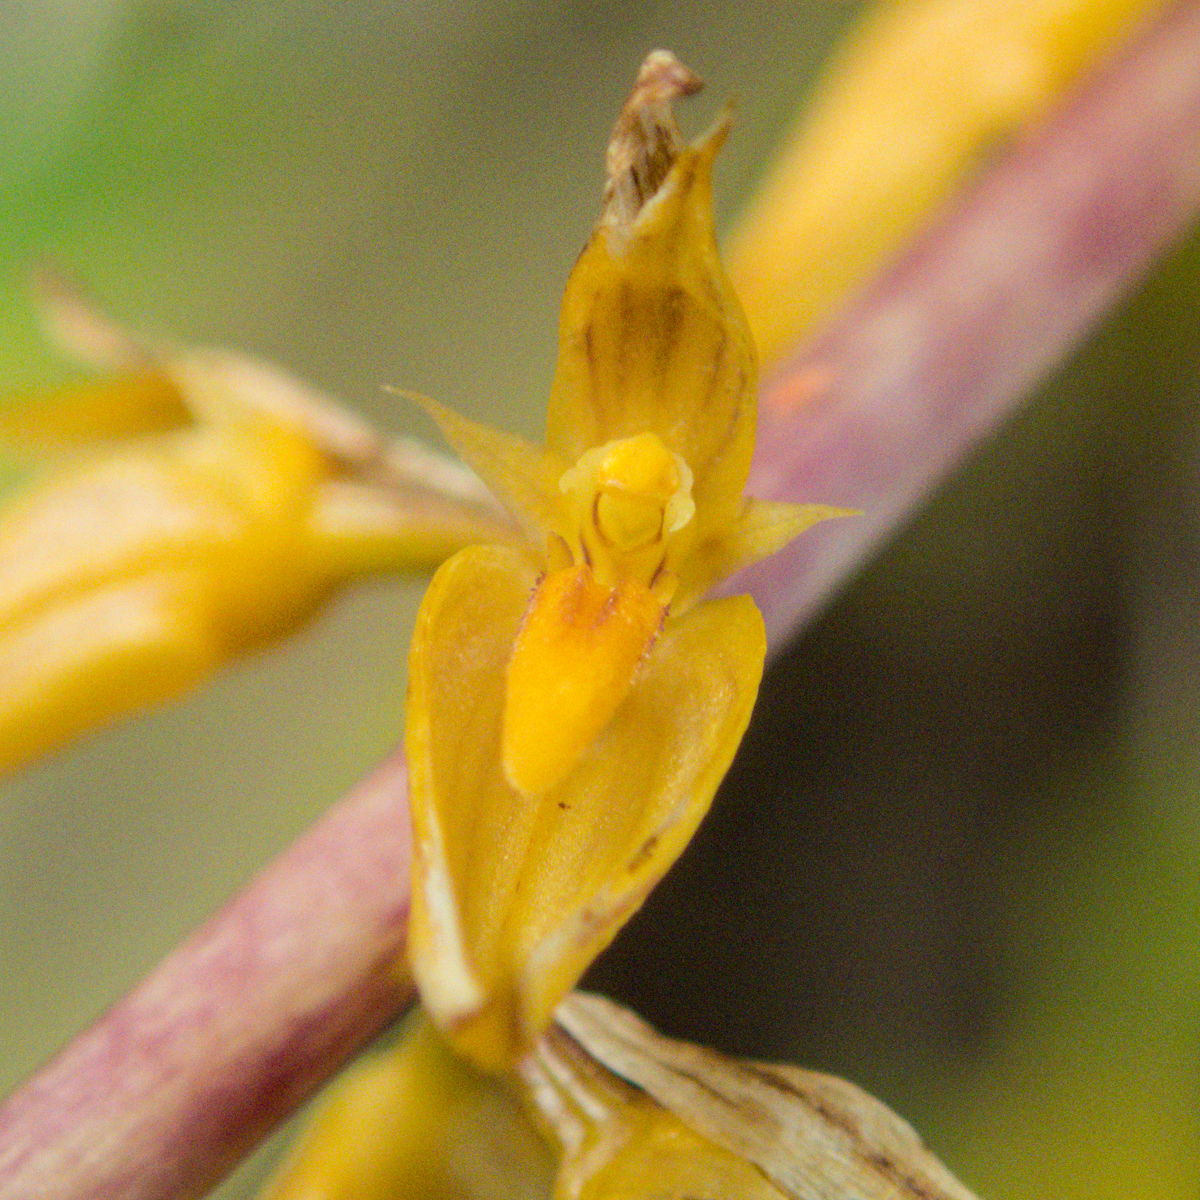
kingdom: Plantae
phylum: Tracheophyta
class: Liliopsida
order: Asparagales
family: Orchidaceae
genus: Bulbophyllum
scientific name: Bulbophyllum rufinum
